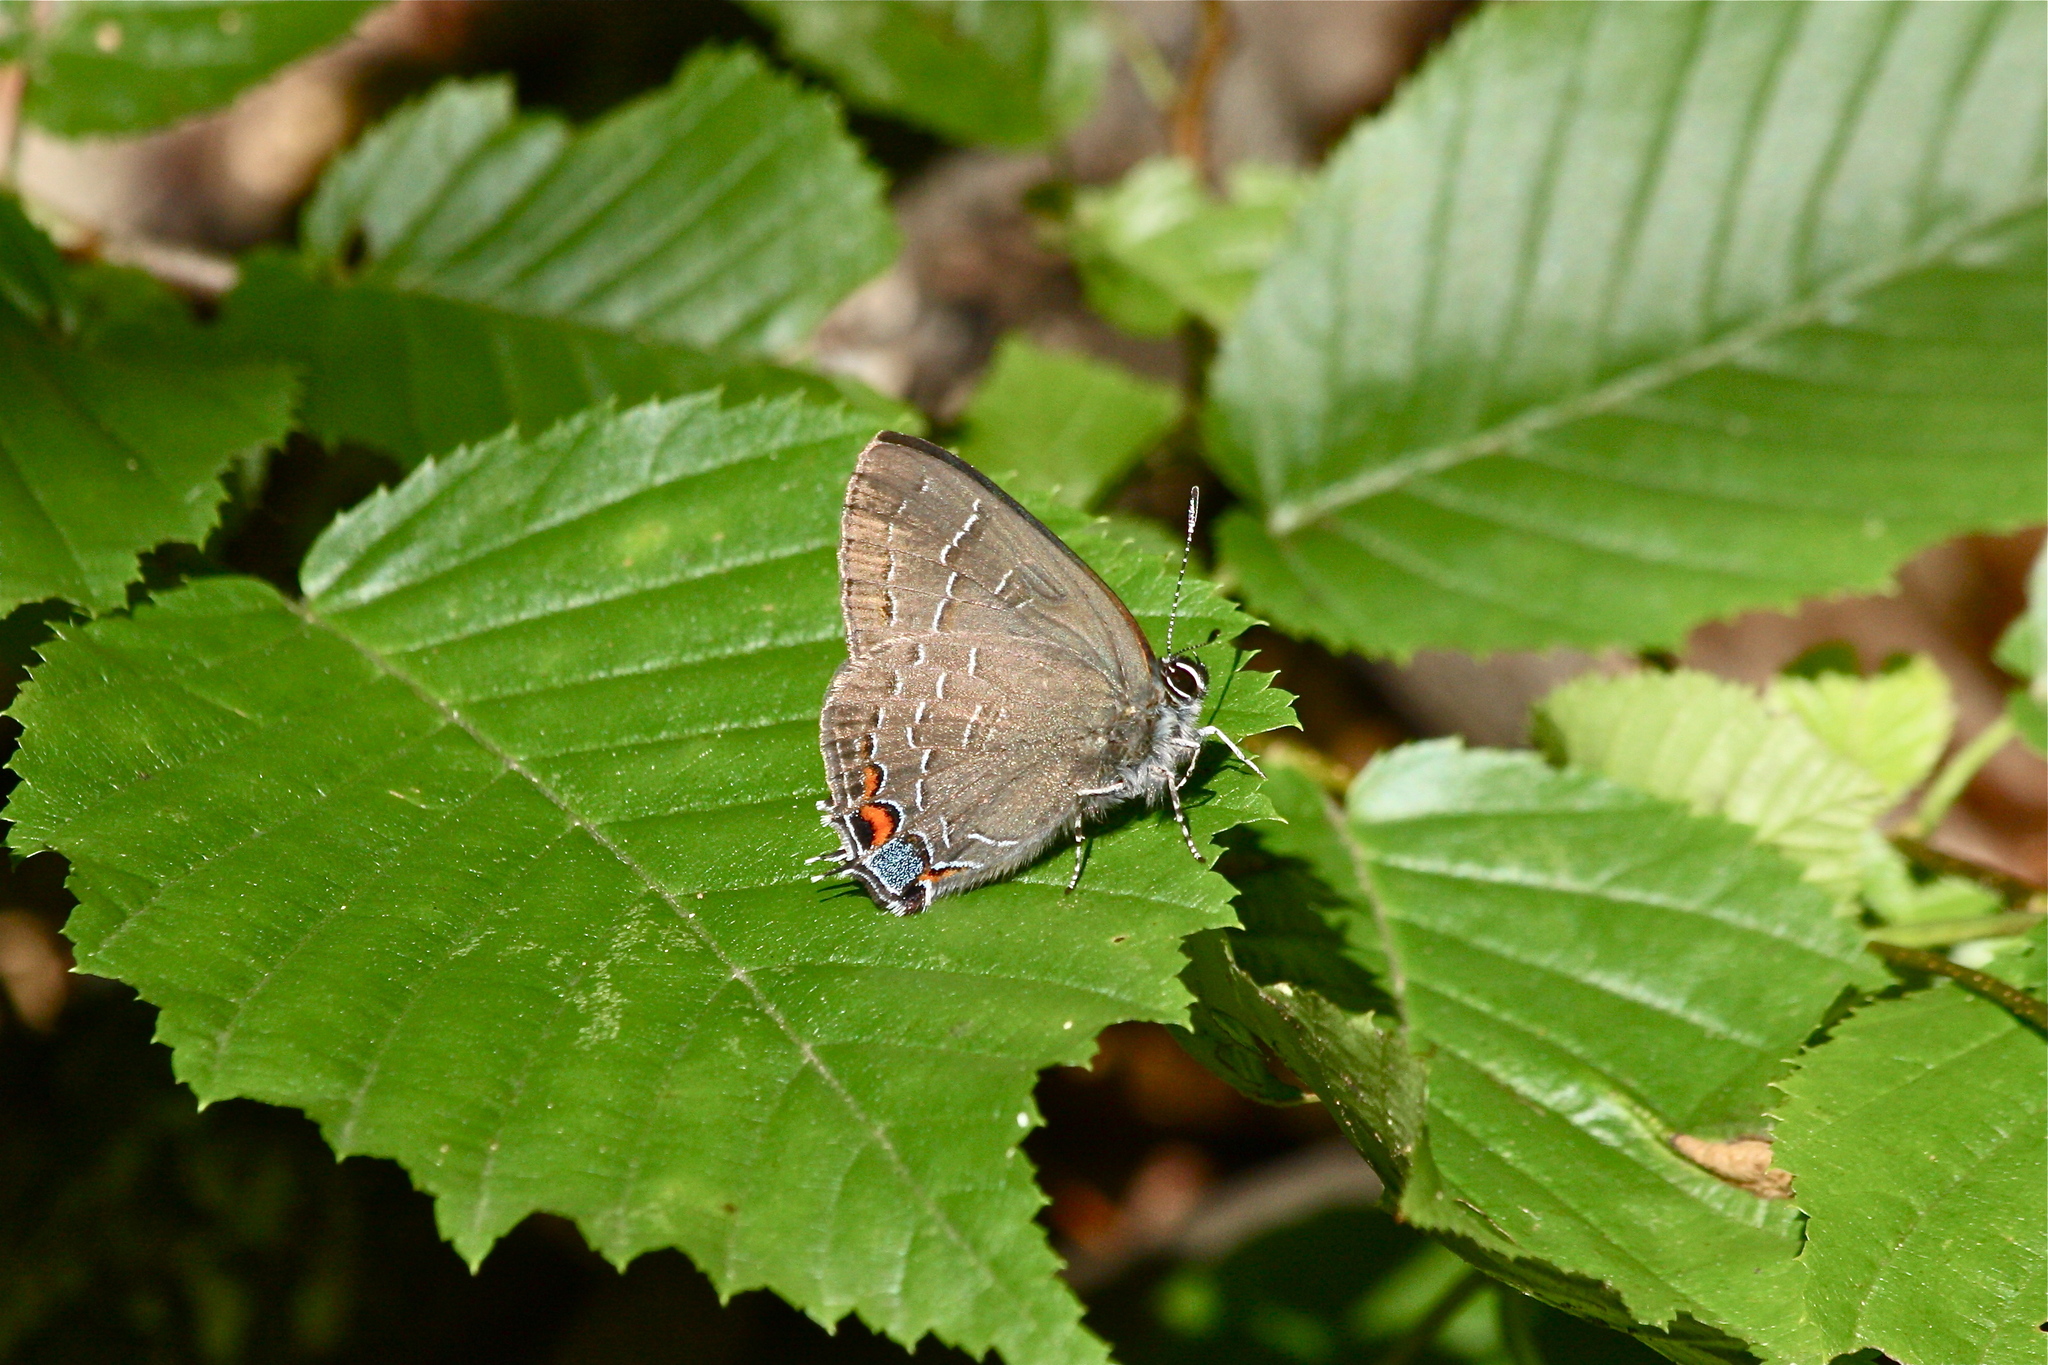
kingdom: Animalia
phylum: Arthropoda
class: Insecta
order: Lepidoptera
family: Lycaenidae
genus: Satyrium
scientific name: Satyrium calanus
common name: Banded hairstreak
